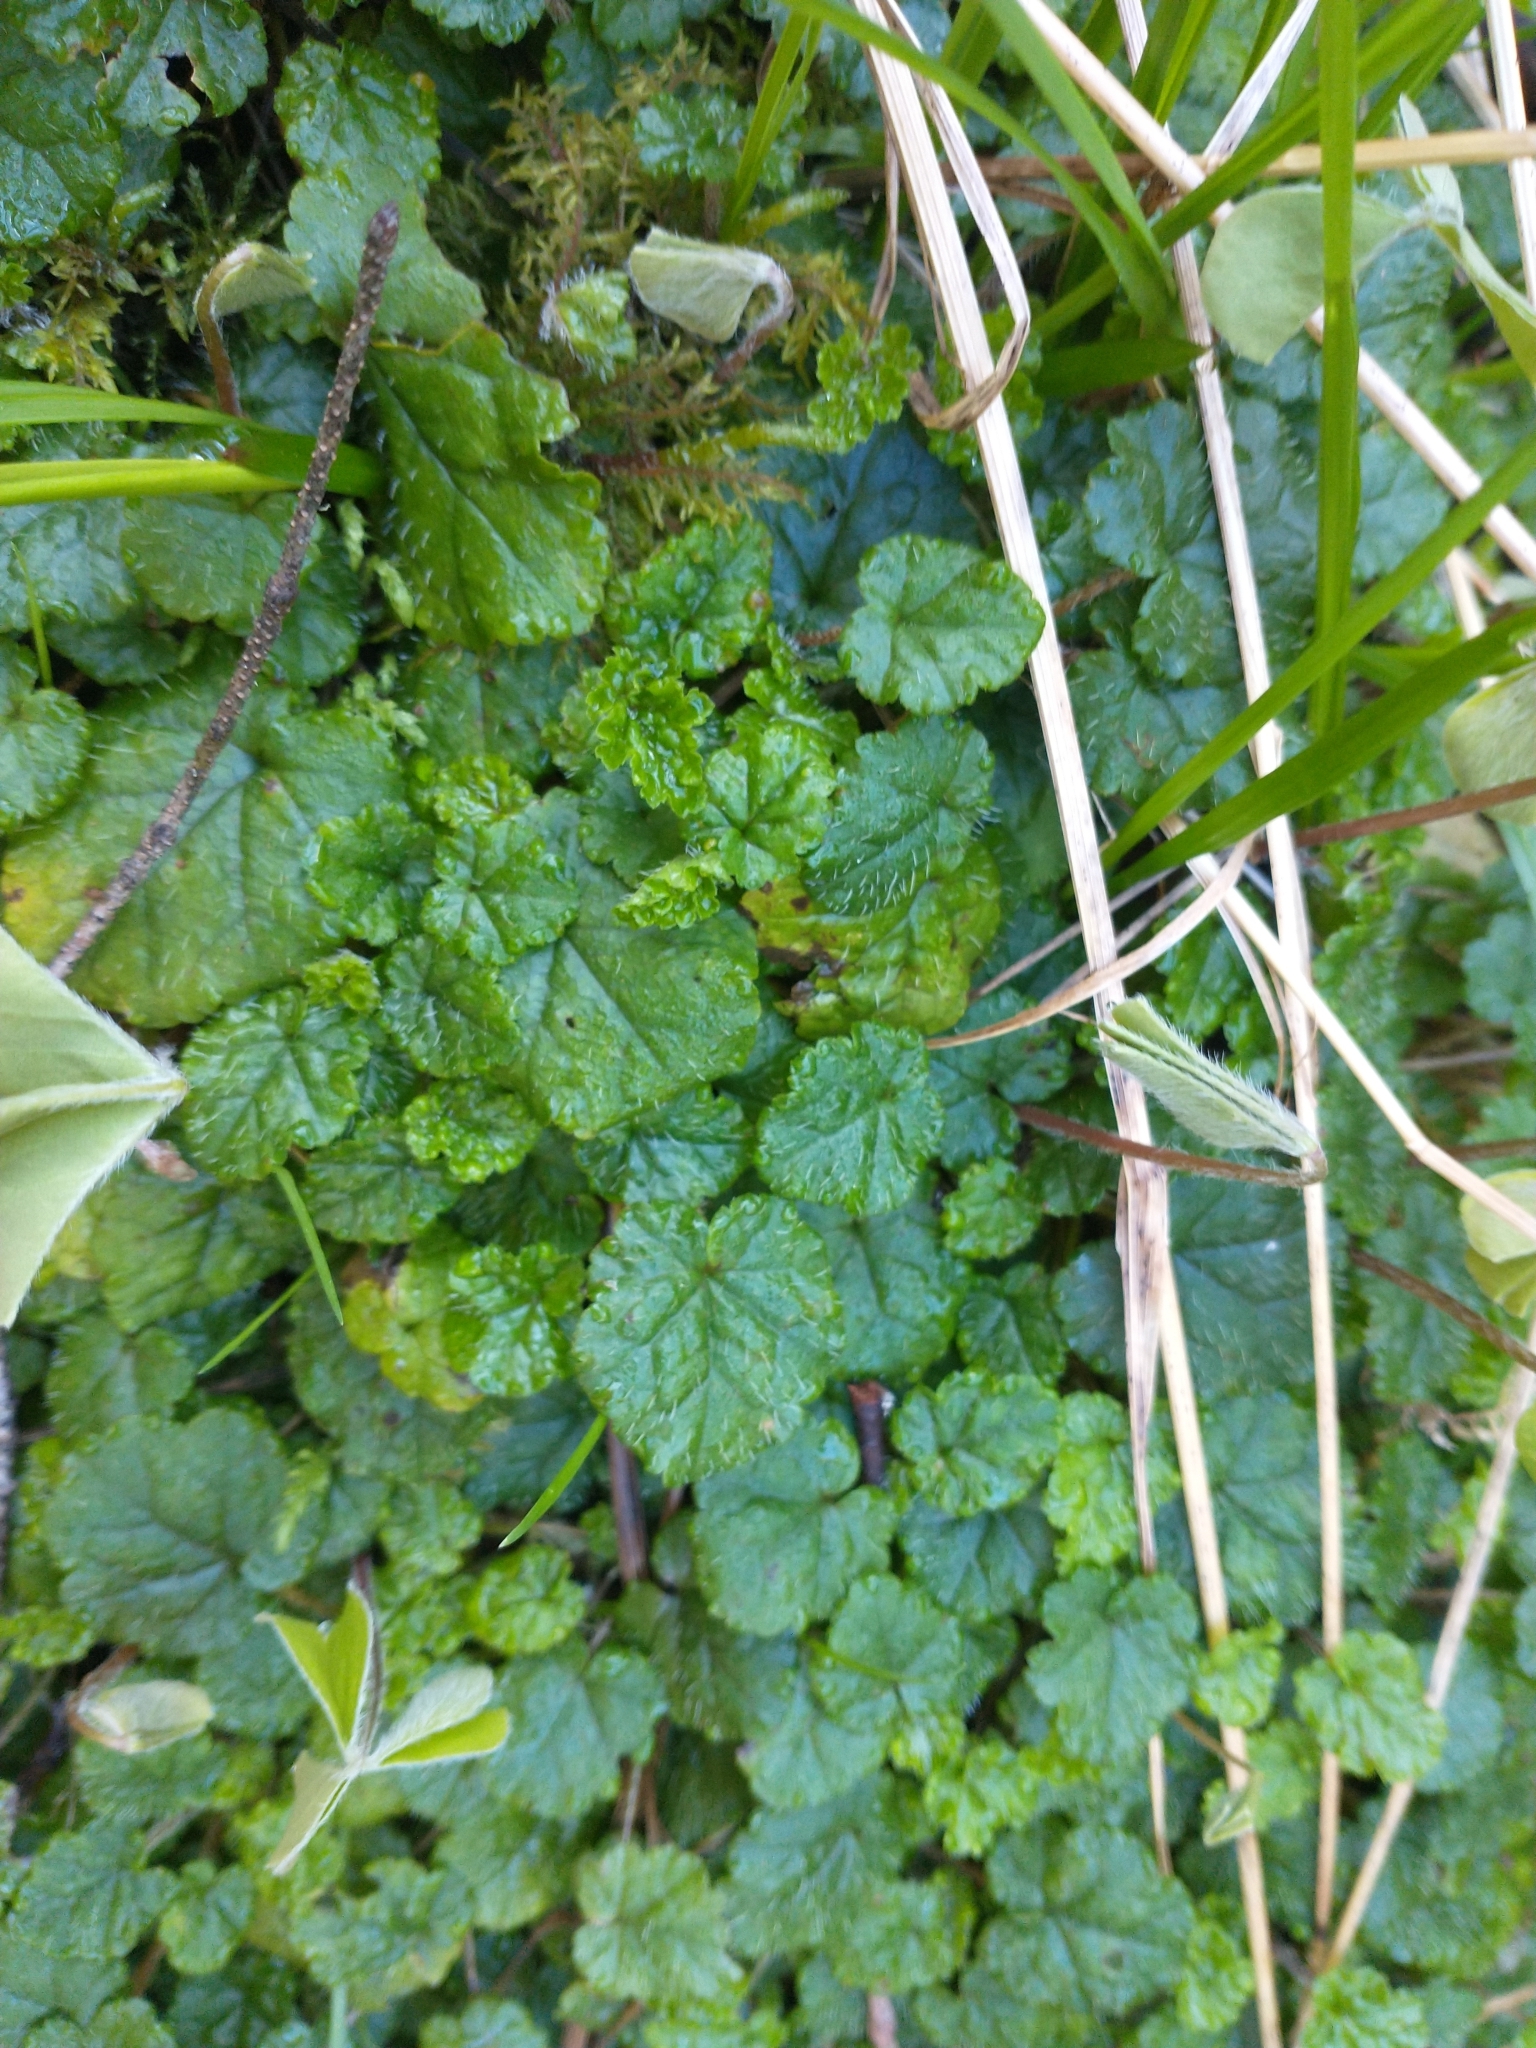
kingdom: Plantae
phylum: Tracheophyta
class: Magnoliopsida
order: Saxifragales
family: Saxifragaceae
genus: Brewerimitella
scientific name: Brewerimitella ovalis
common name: Coastal bishop's-cap
